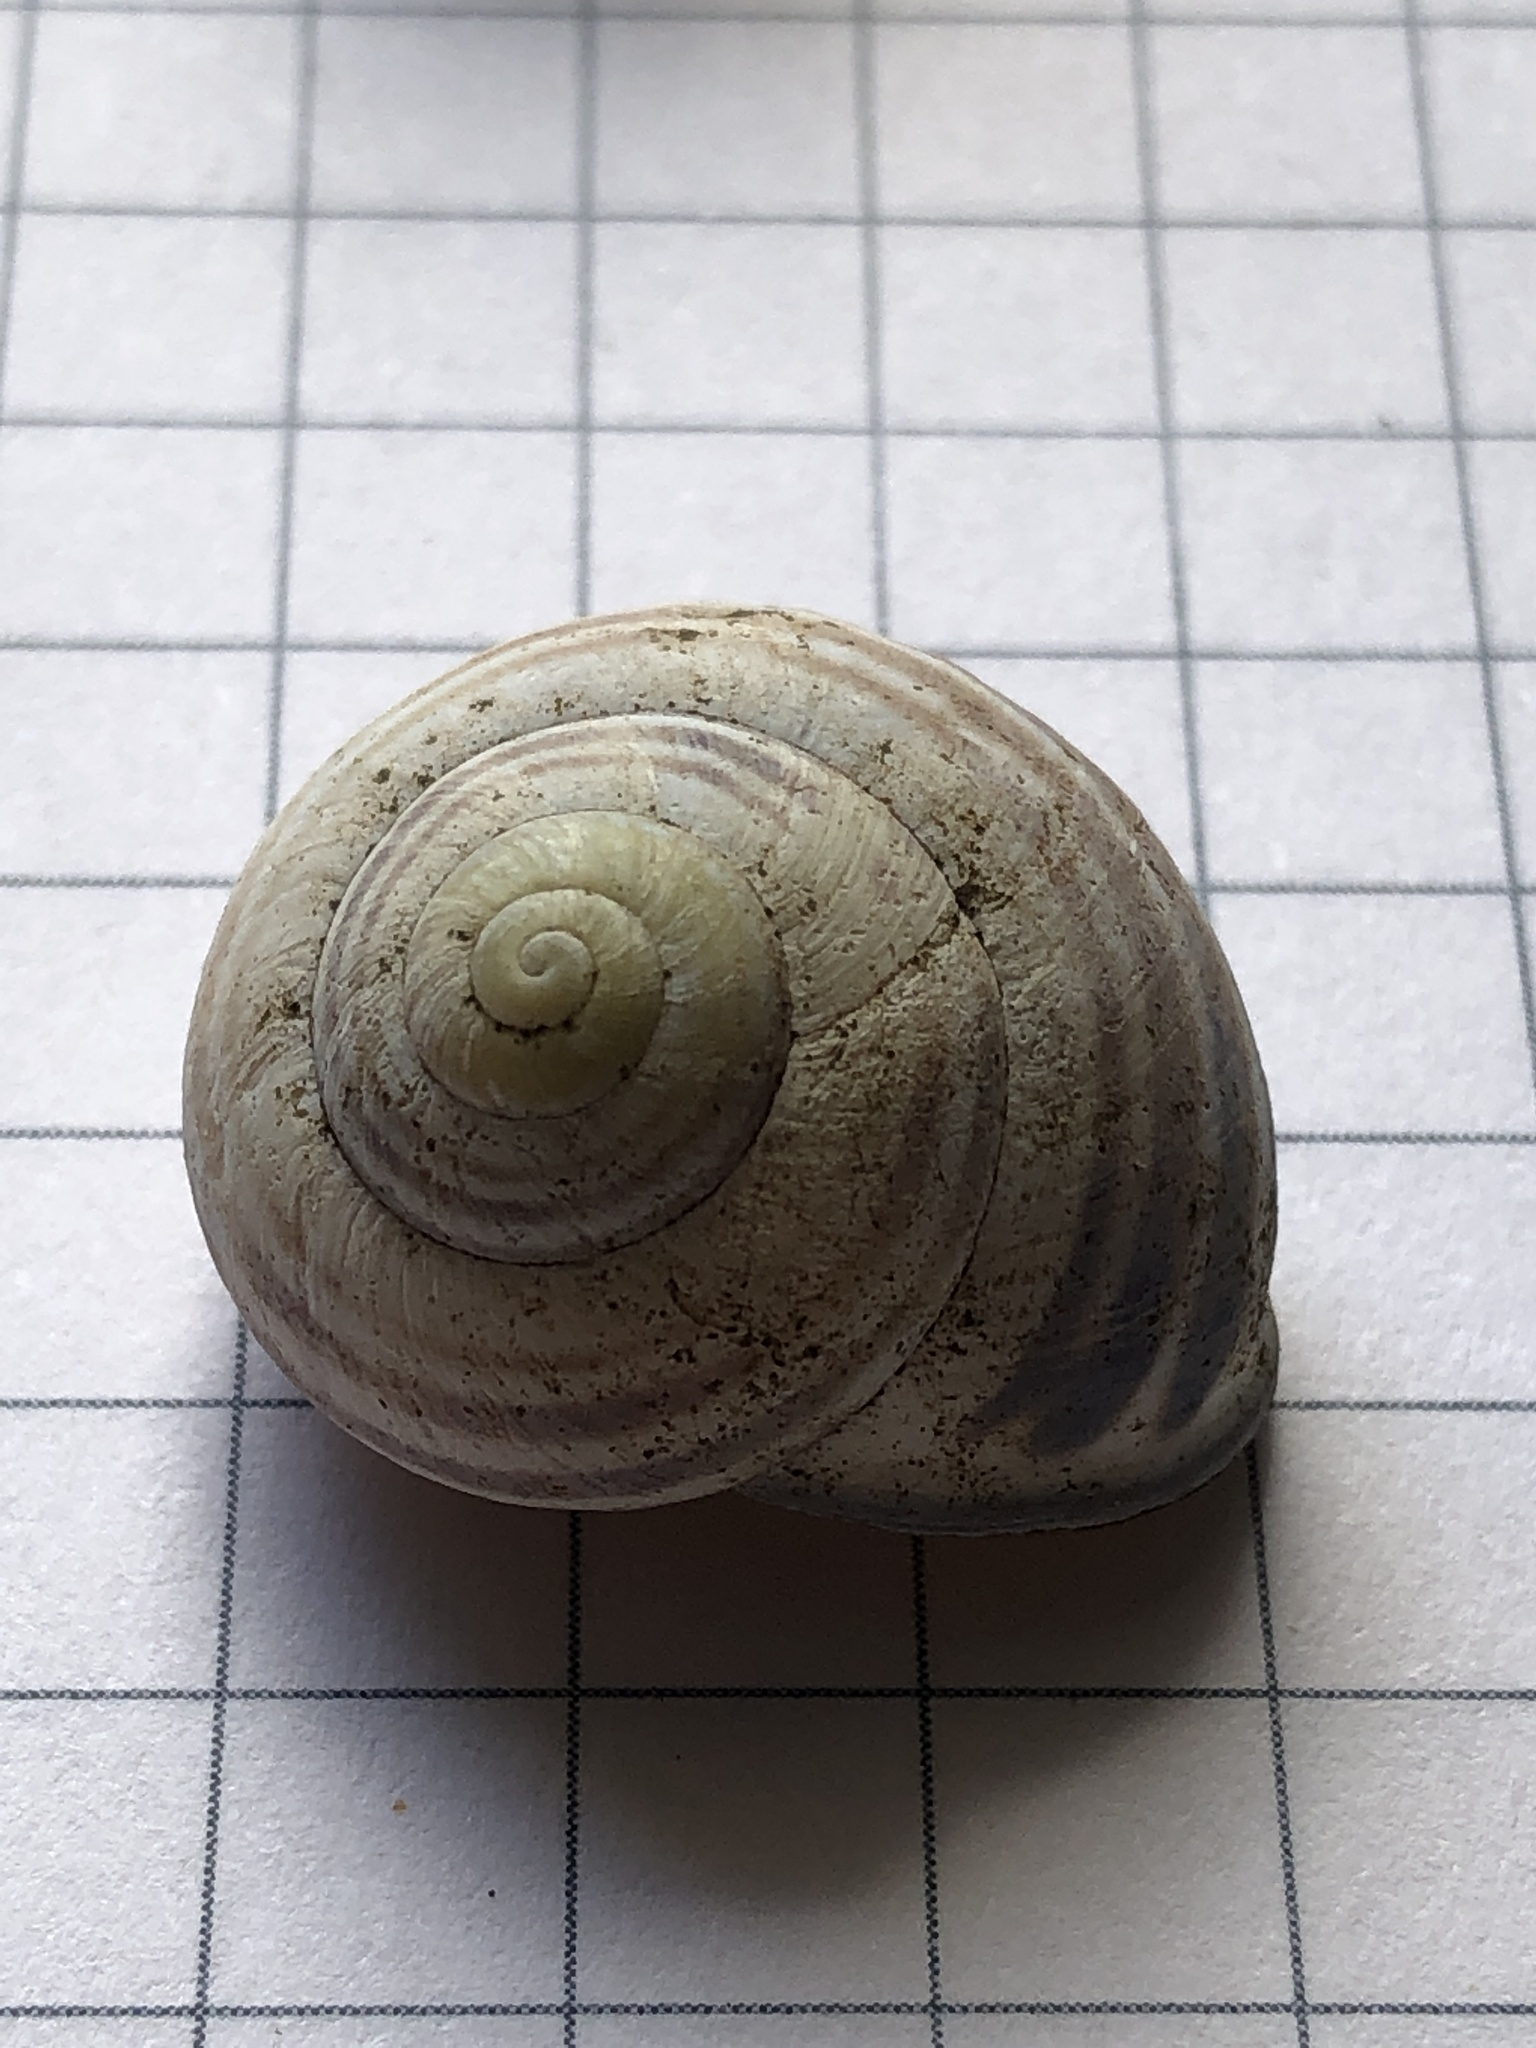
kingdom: Animalia
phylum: Mollusca
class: Gastropoda
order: Stylommatophora
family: Helicidae
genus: Cepaea
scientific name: Cepaea nemoralis
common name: Grovesnail
